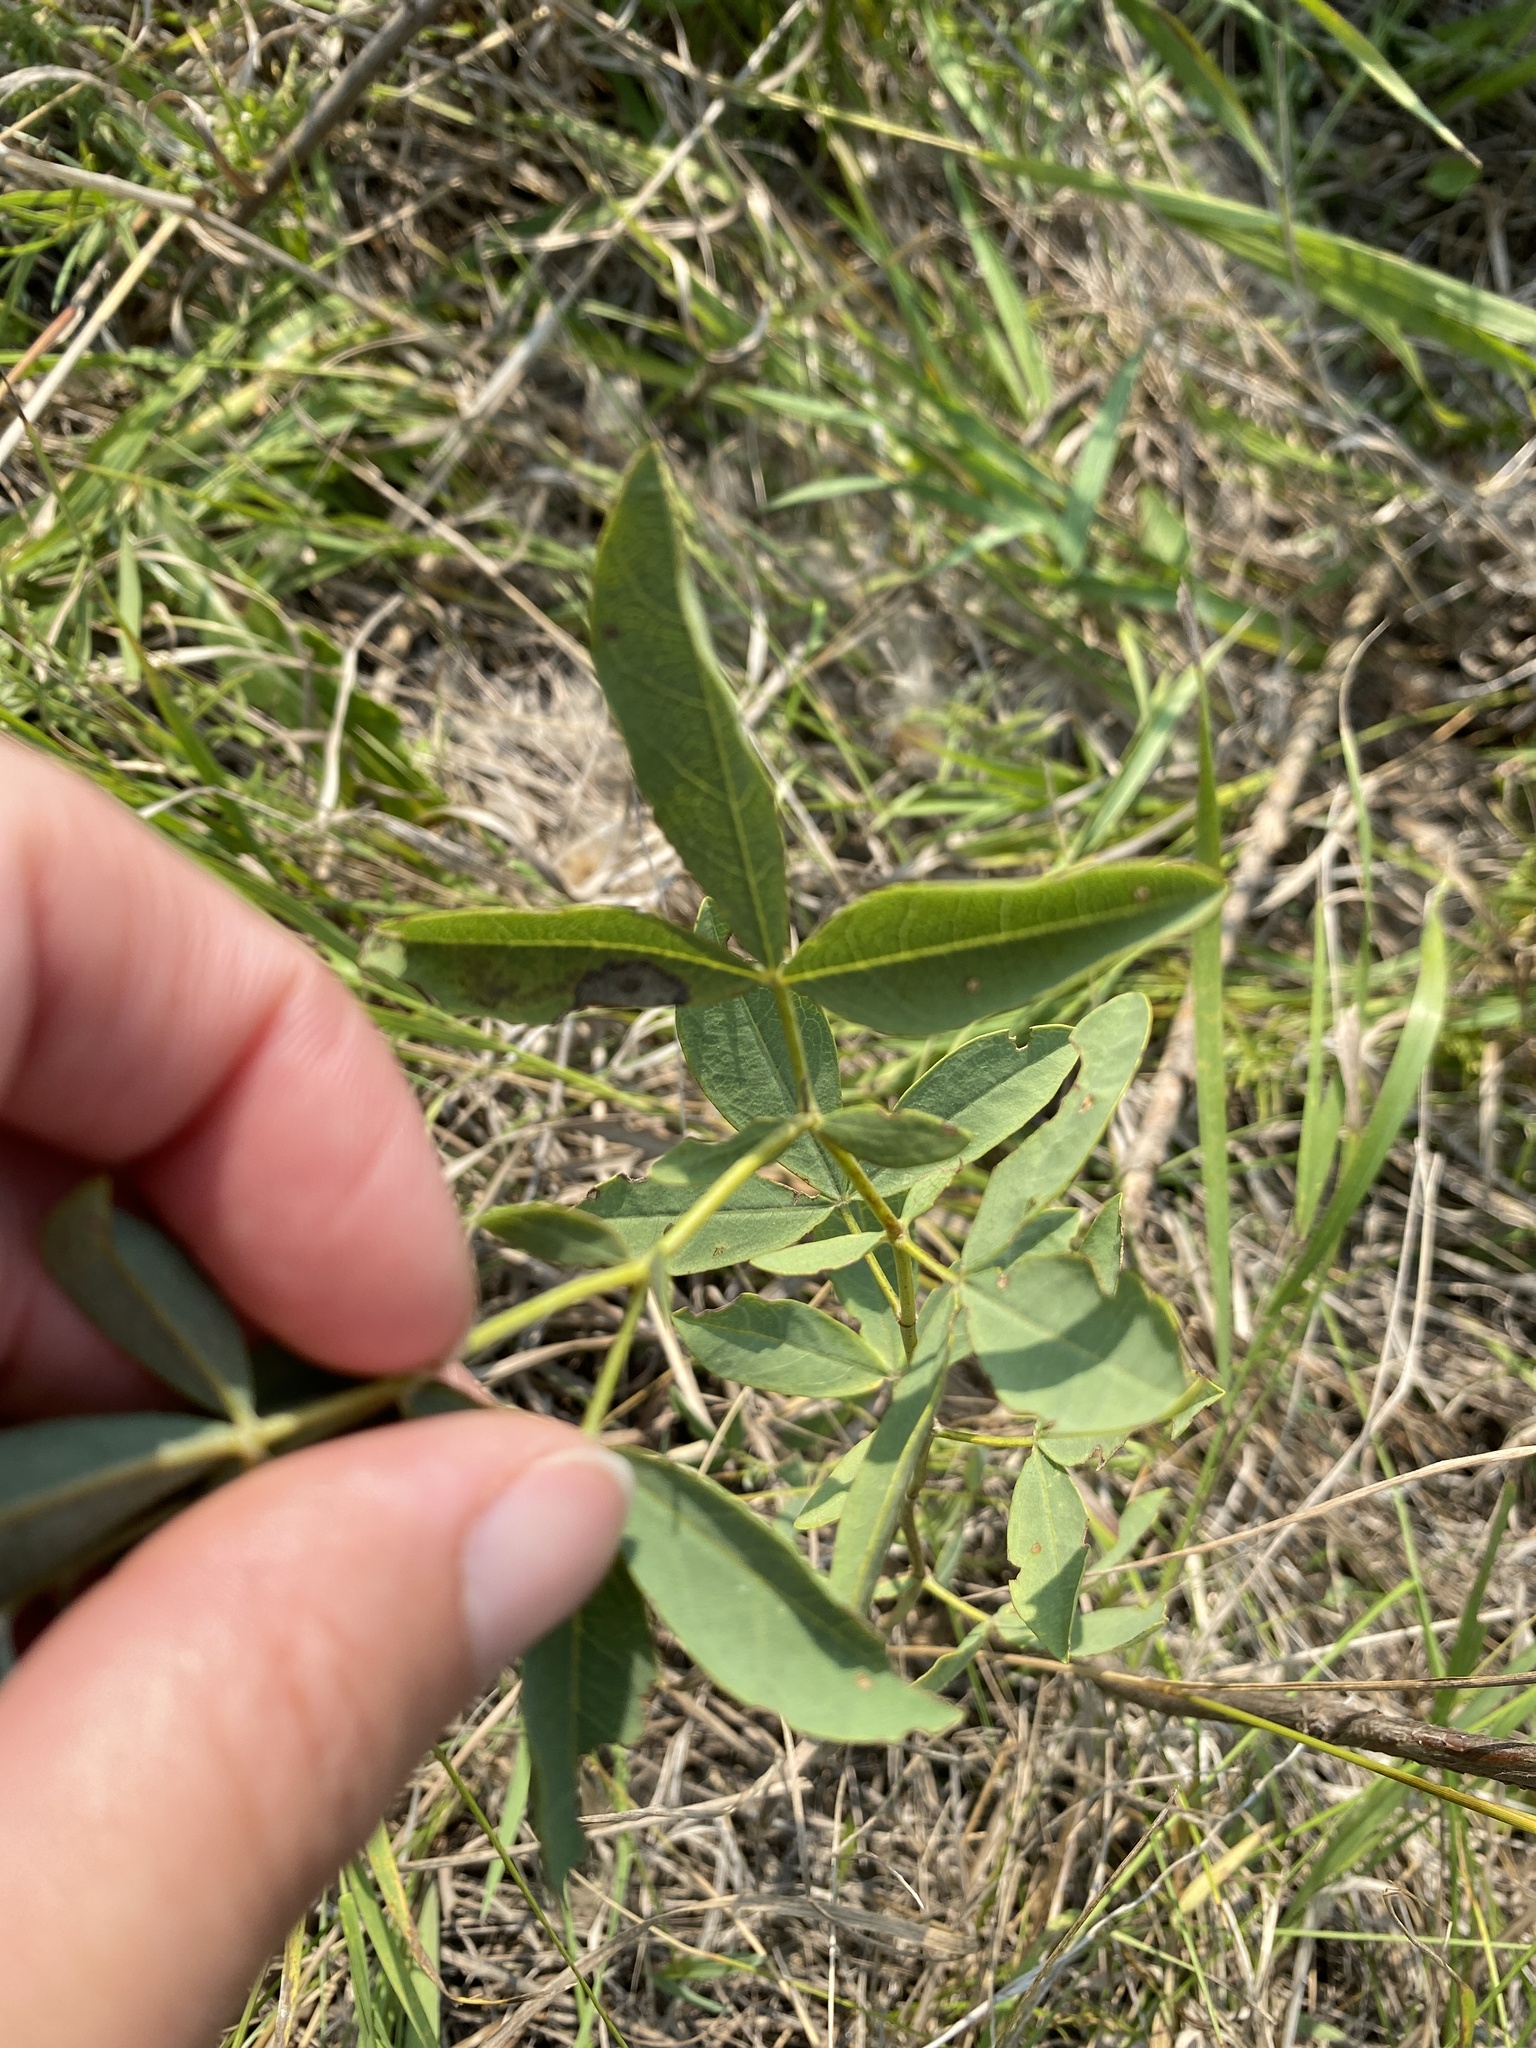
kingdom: Plantae
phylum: Tracheophyta
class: Magnoliopsida
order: Fabales
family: Fabaceae
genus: Thermopsis
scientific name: Thermopsis rhombifolia
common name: Circle-pod-pea
